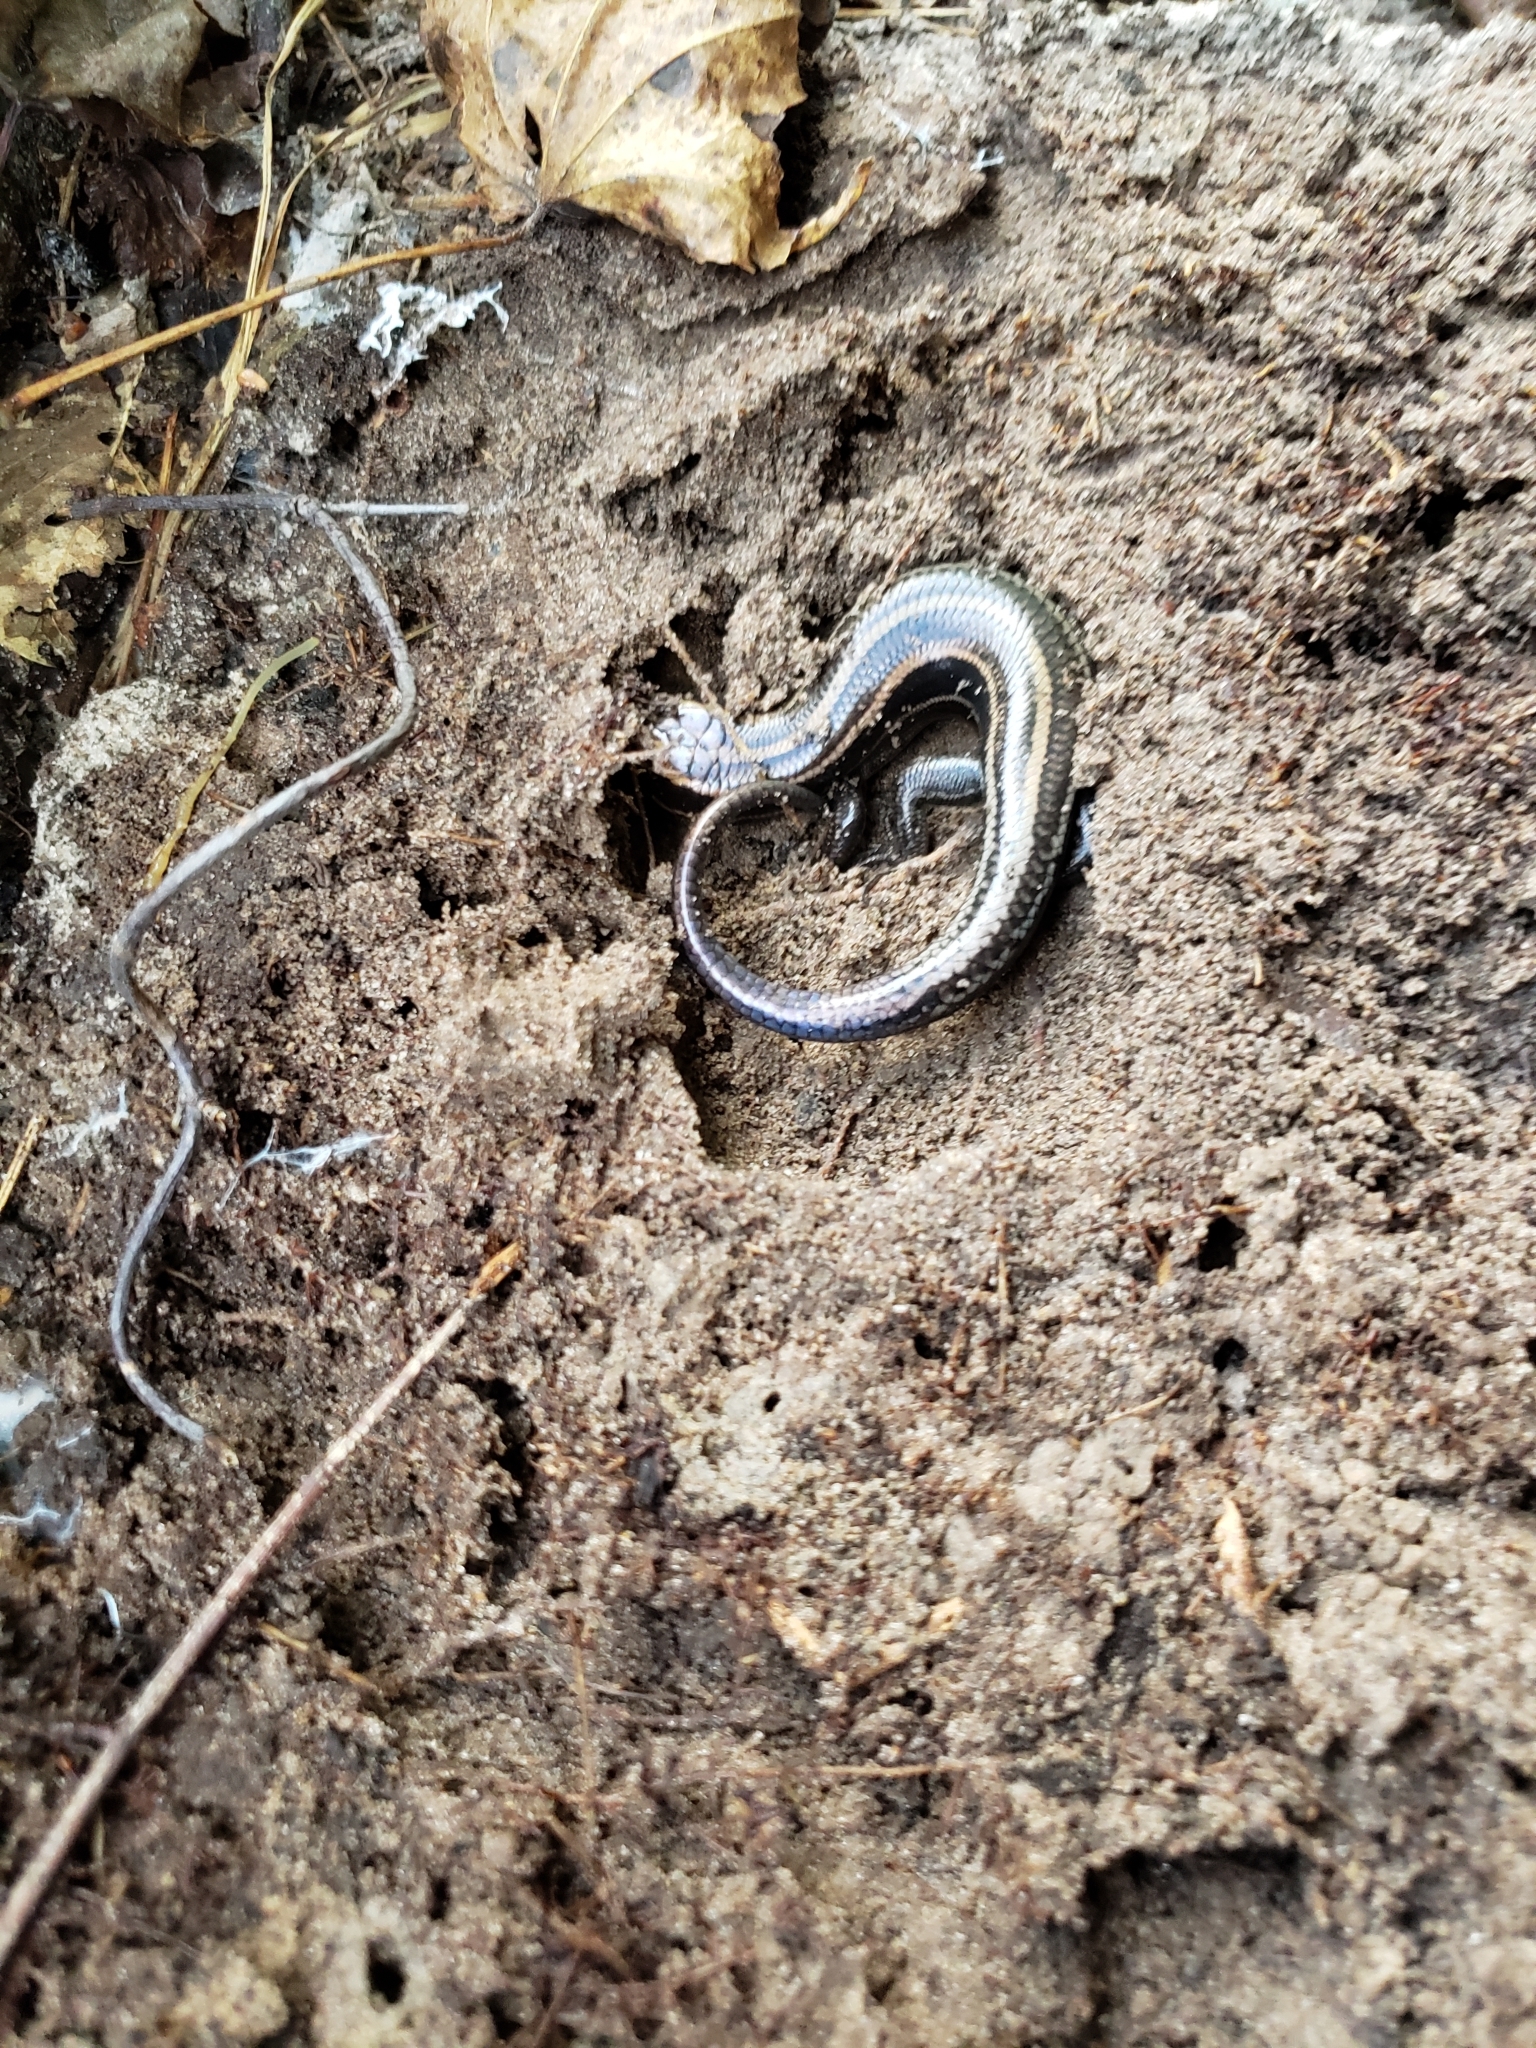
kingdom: Animalia
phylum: Chordata
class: Squamata
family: Scincidae
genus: Plestiodon
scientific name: Plestiodon fasciatus
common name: Five-lined skink
